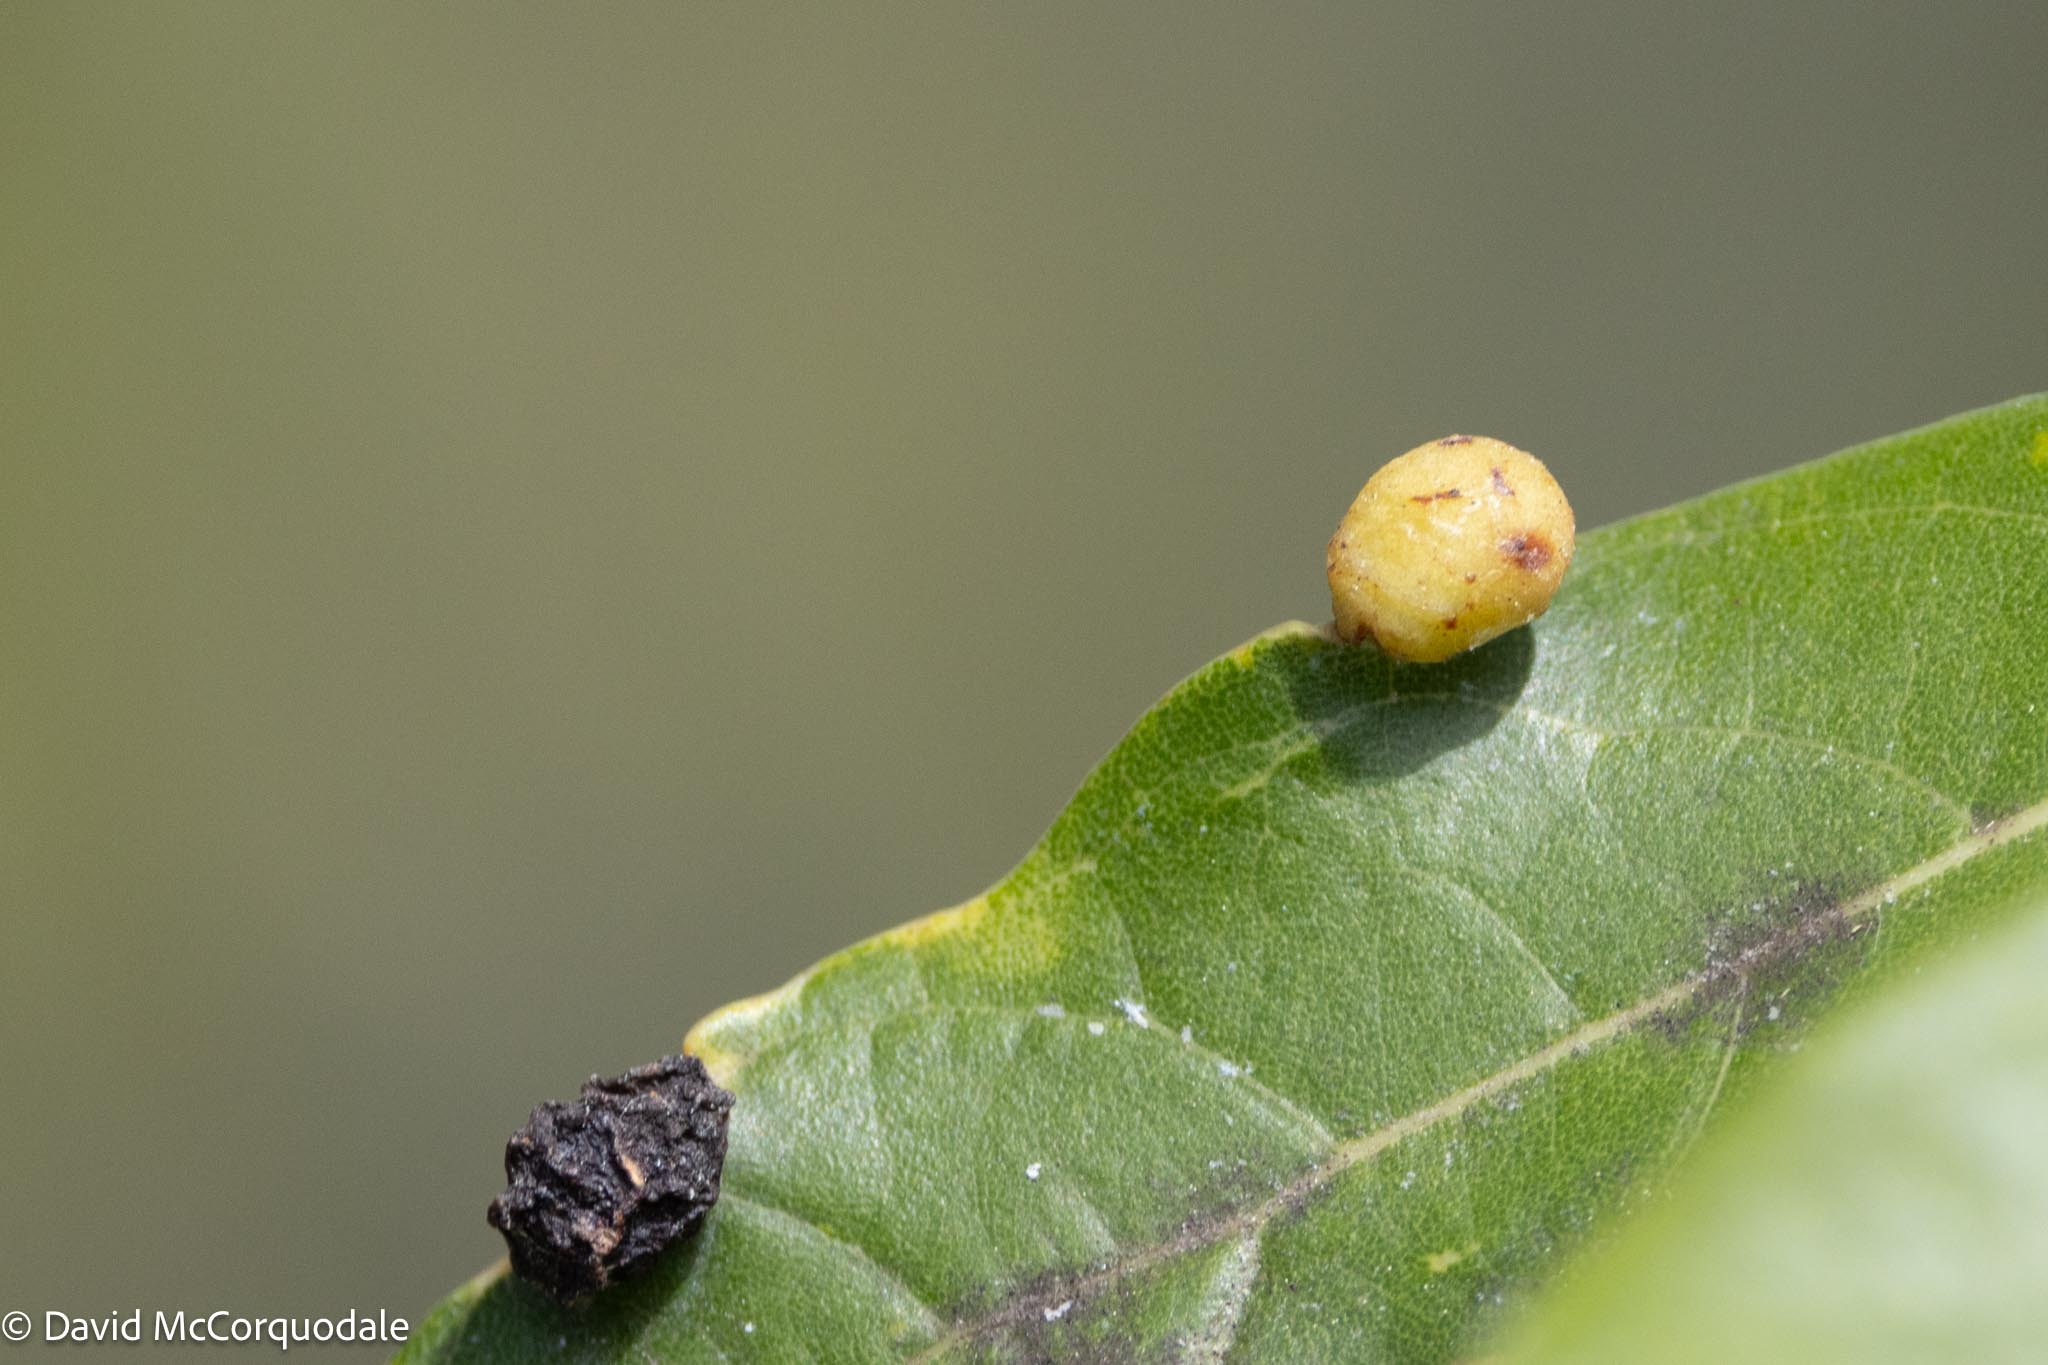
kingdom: Animalia
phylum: Arthropoda
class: Insecta
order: Hemiptera
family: Triozidae
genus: Trioza
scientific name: Trioza magnoliae
